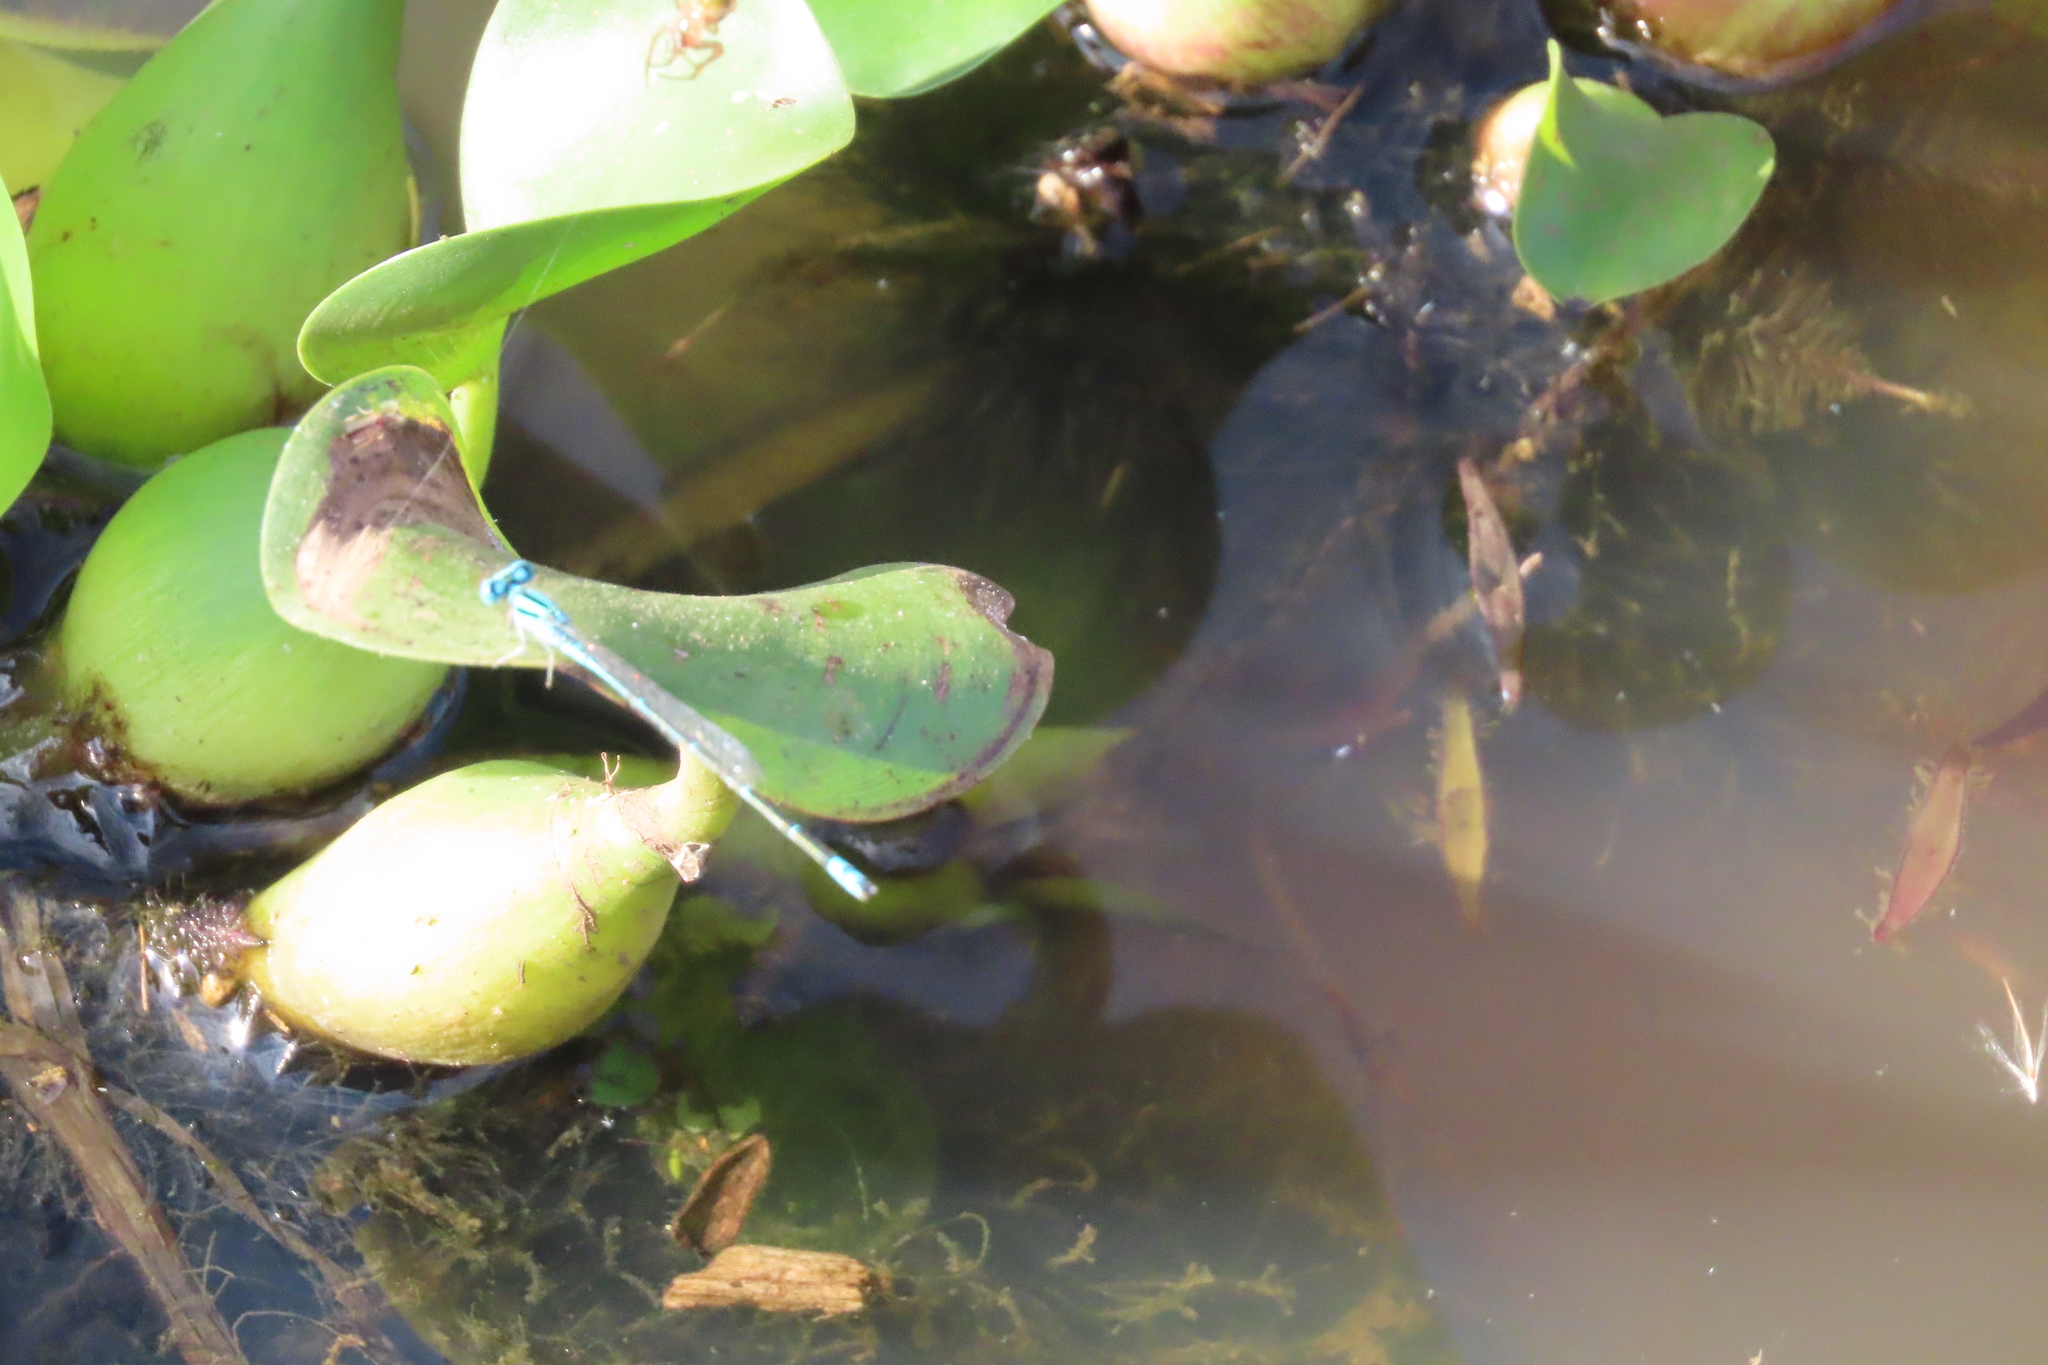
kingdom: Plantae
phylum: Tracheophyta
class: Liliopsida
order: Commelinales
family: Pontederiaceae
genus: Pontederia
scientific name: Pontederia crassipes
